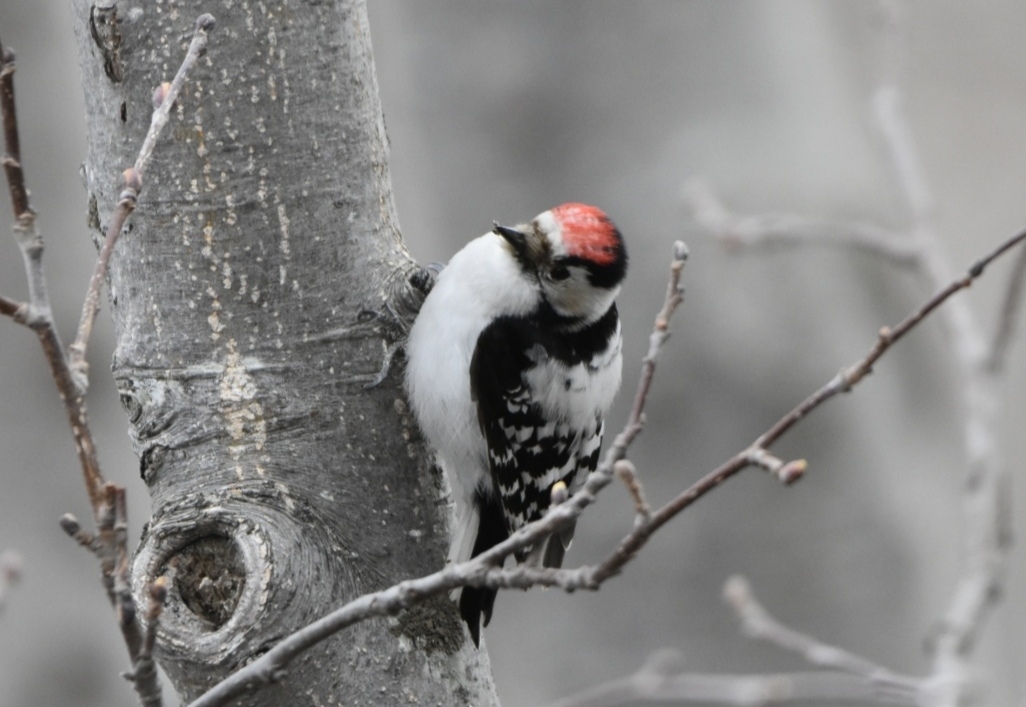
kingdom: Animalia
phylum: Chordata
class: Aves
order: Piciformes
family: Picidae
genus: Dryobates
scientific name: Dryobates minor
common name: Lesser spotted woodpecker
